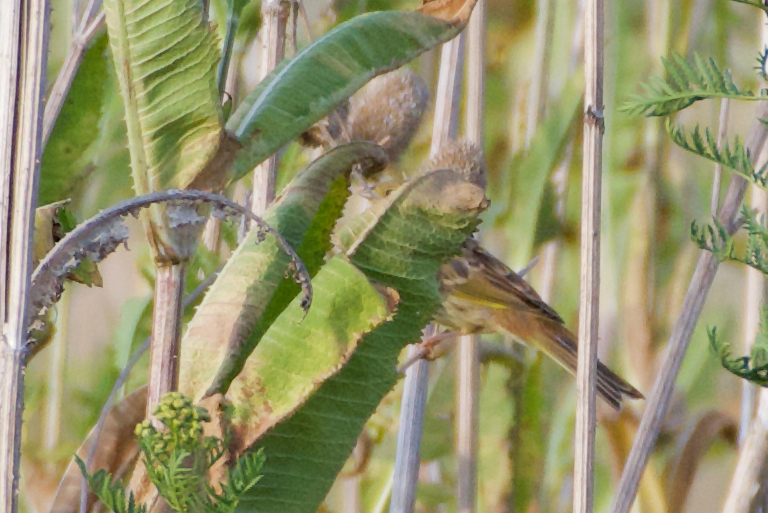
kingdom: Animalia
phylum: Chordata
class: Aves
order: Passeriformes
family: Emberizidae
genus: Emberiza
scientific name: Emberiza citrinella
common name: Yellowhammer
